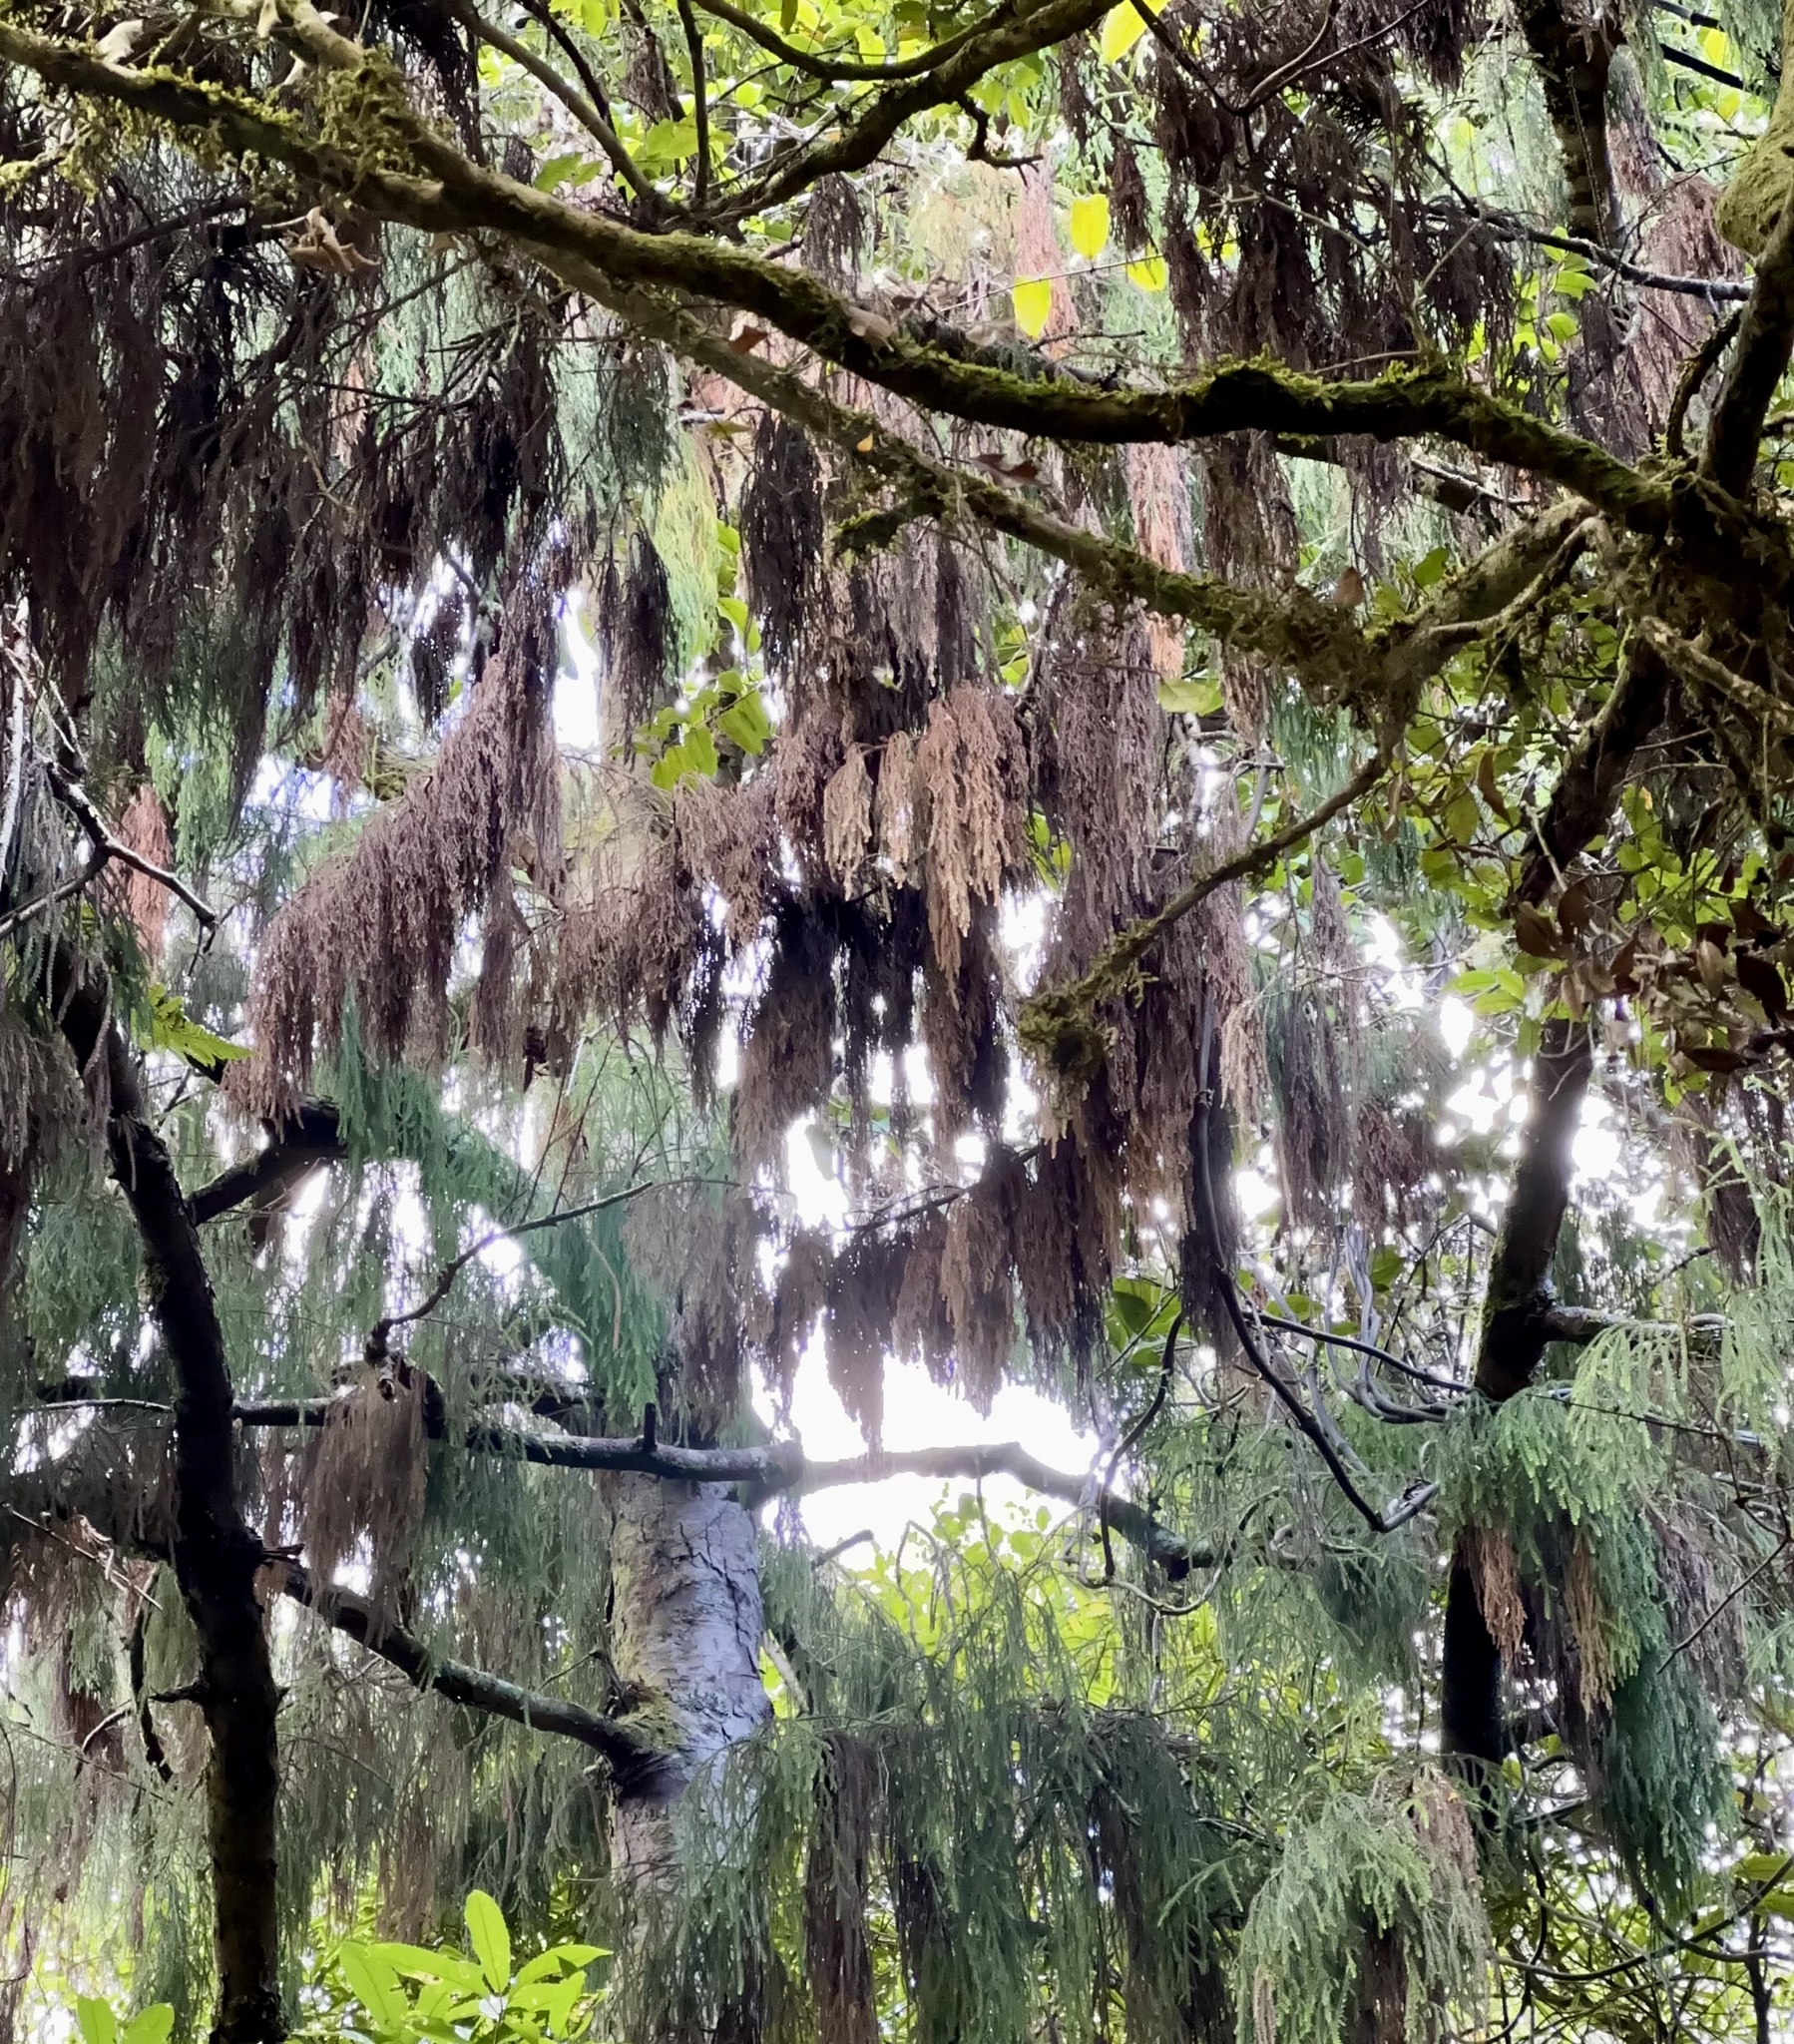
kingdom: Plantae
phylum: Tracheophyta
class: Pinopsida
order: Pinales
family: Podocarpaceae
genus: Dacrydium
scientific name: Dacrydium cupressinum
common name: Red pine
